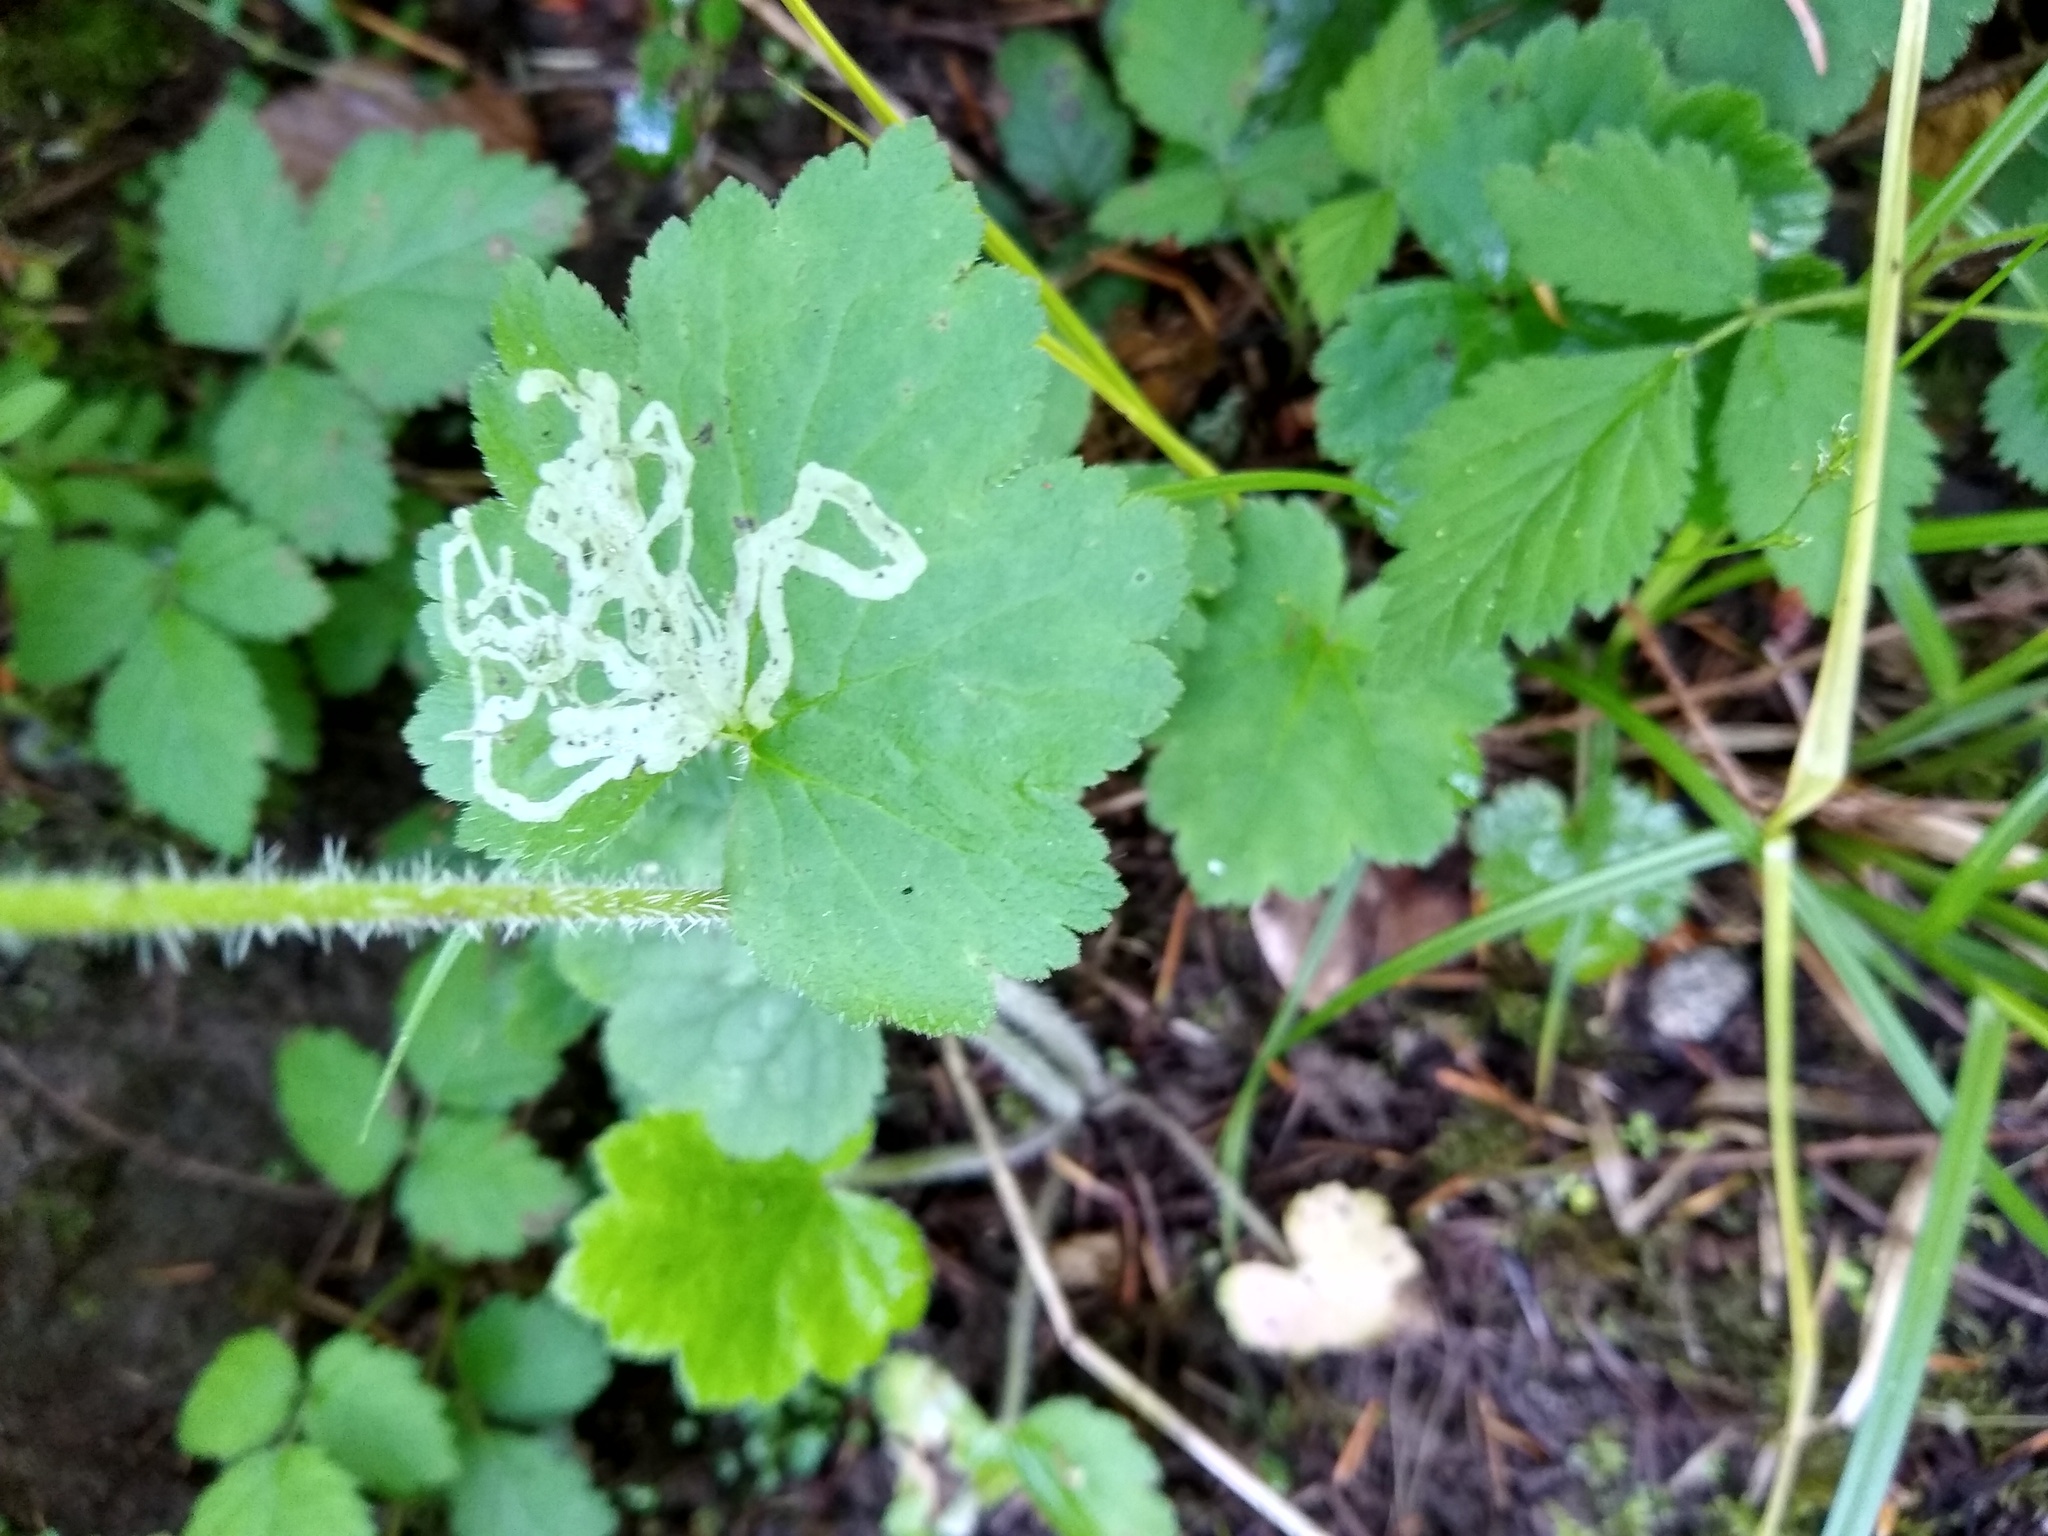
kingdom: Animalia
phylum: Arthropoda
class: Insecta
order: Diptera
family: Agromyzidae
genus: Phytomyza
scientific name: Phytomyza tiarellae
